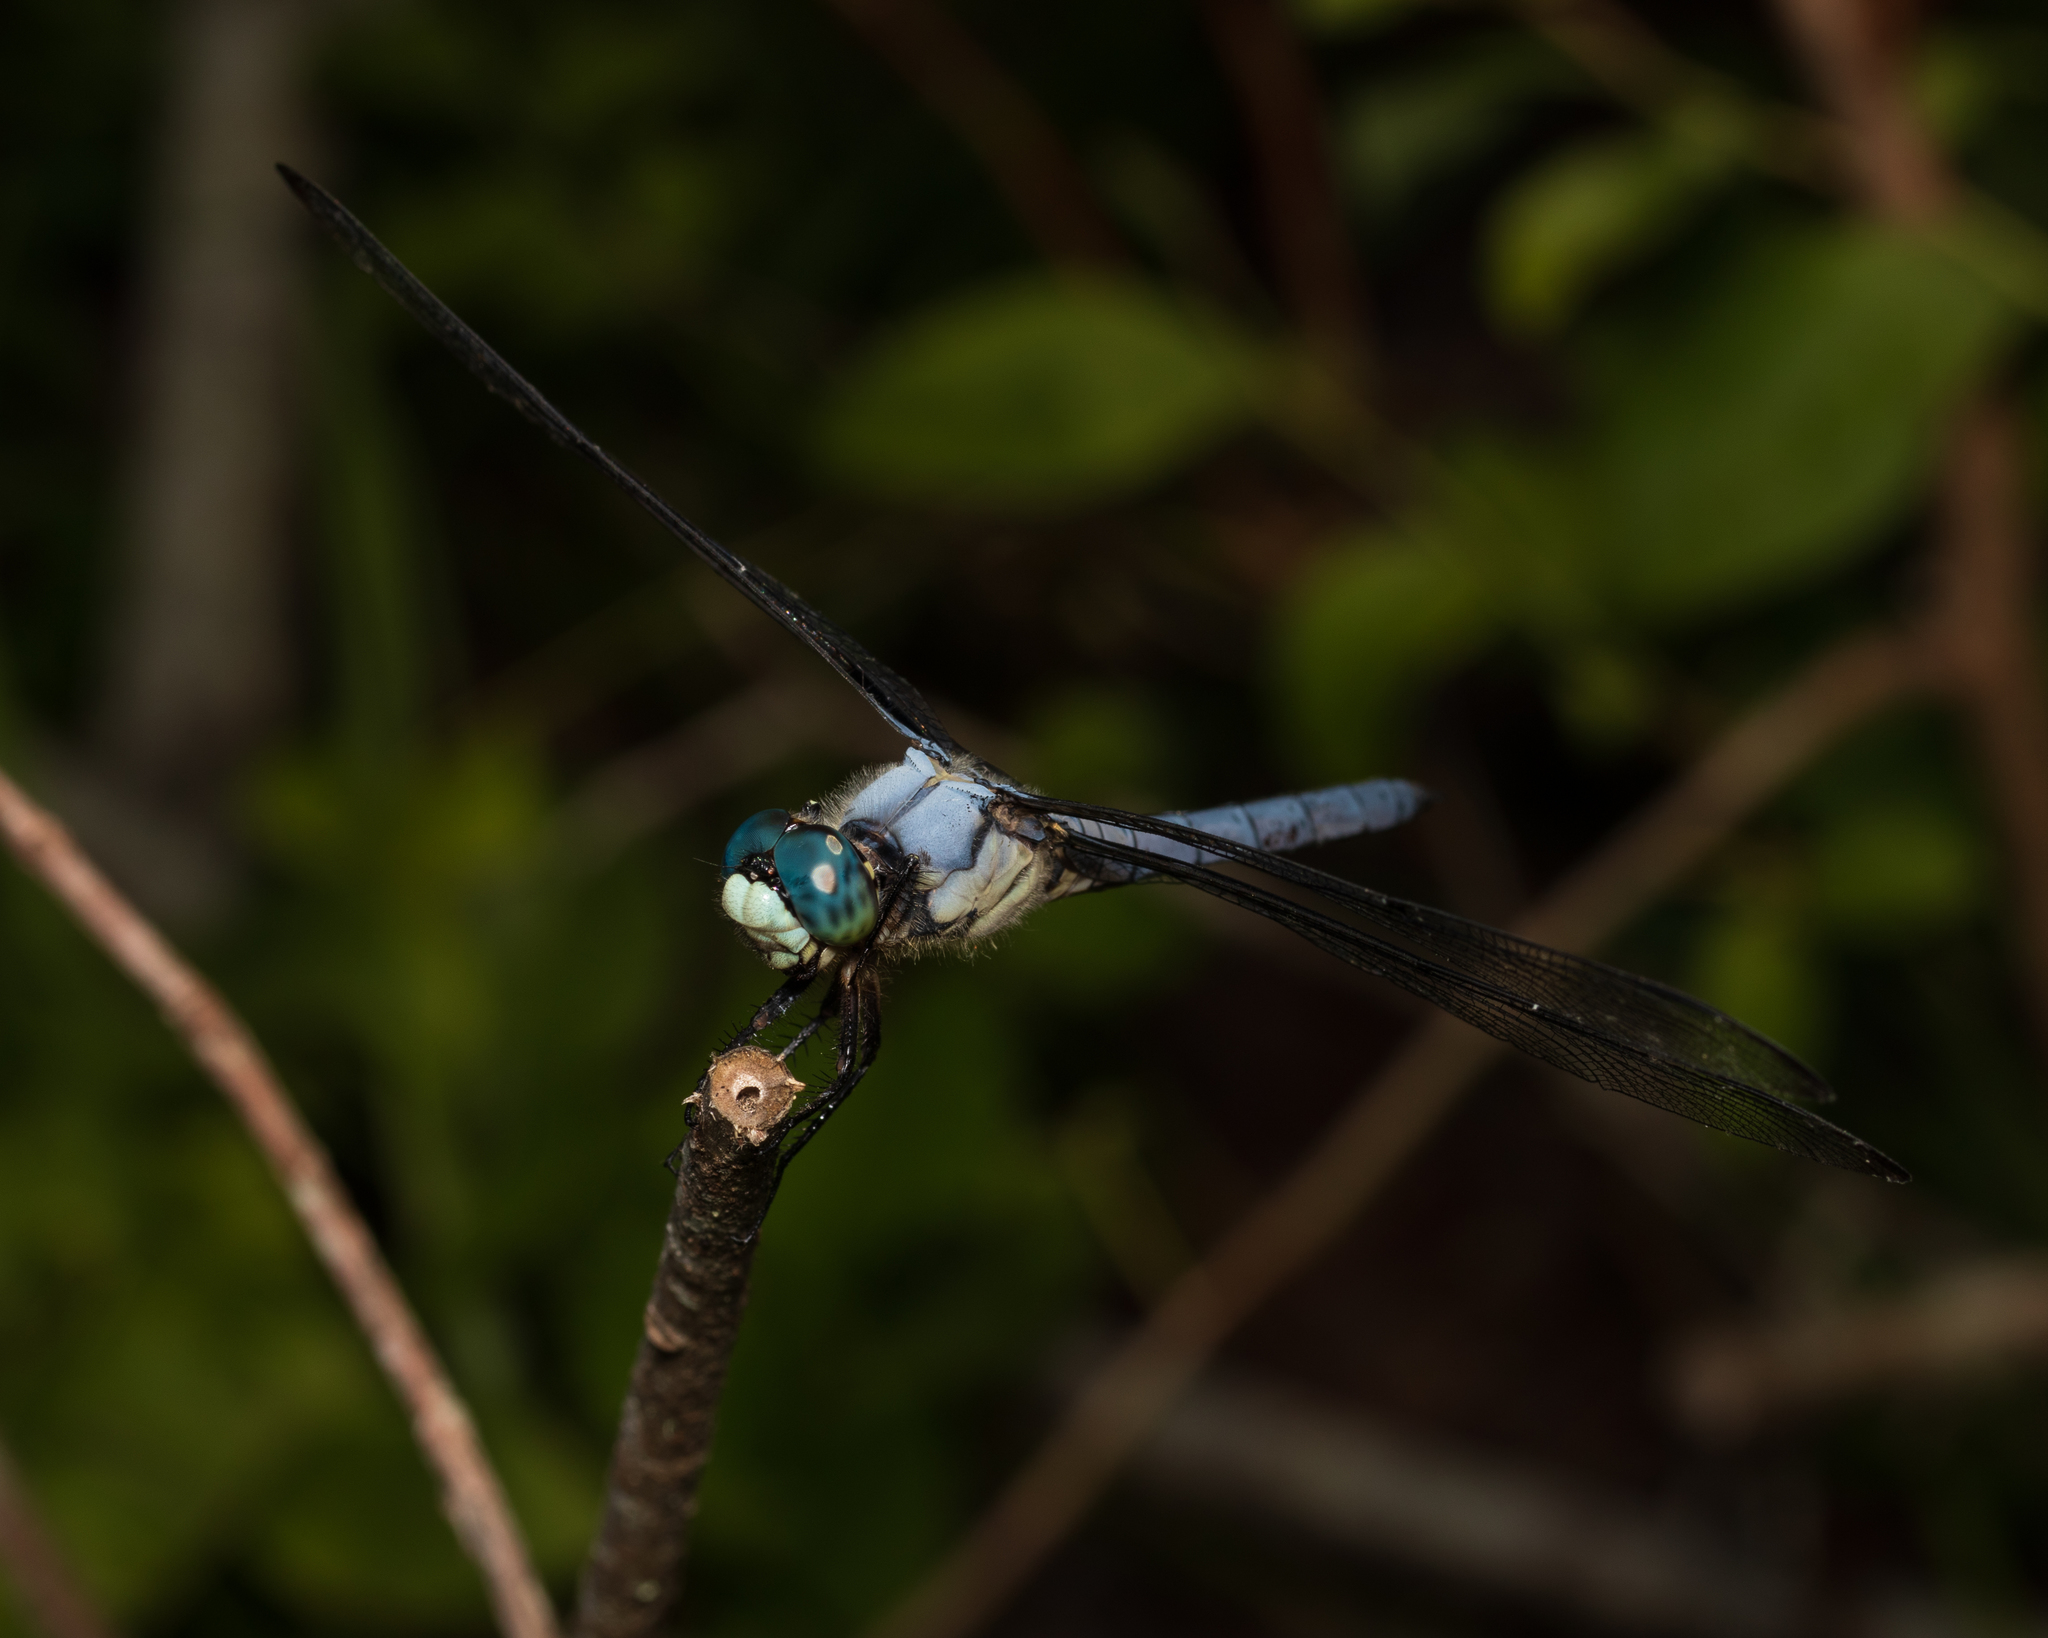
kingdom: Animalia
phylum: Arthropoda
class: Insecta
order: Odonata
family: Libellulidae
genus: Libellula
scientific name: Libellula vibrans
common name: Great blue skimmer
